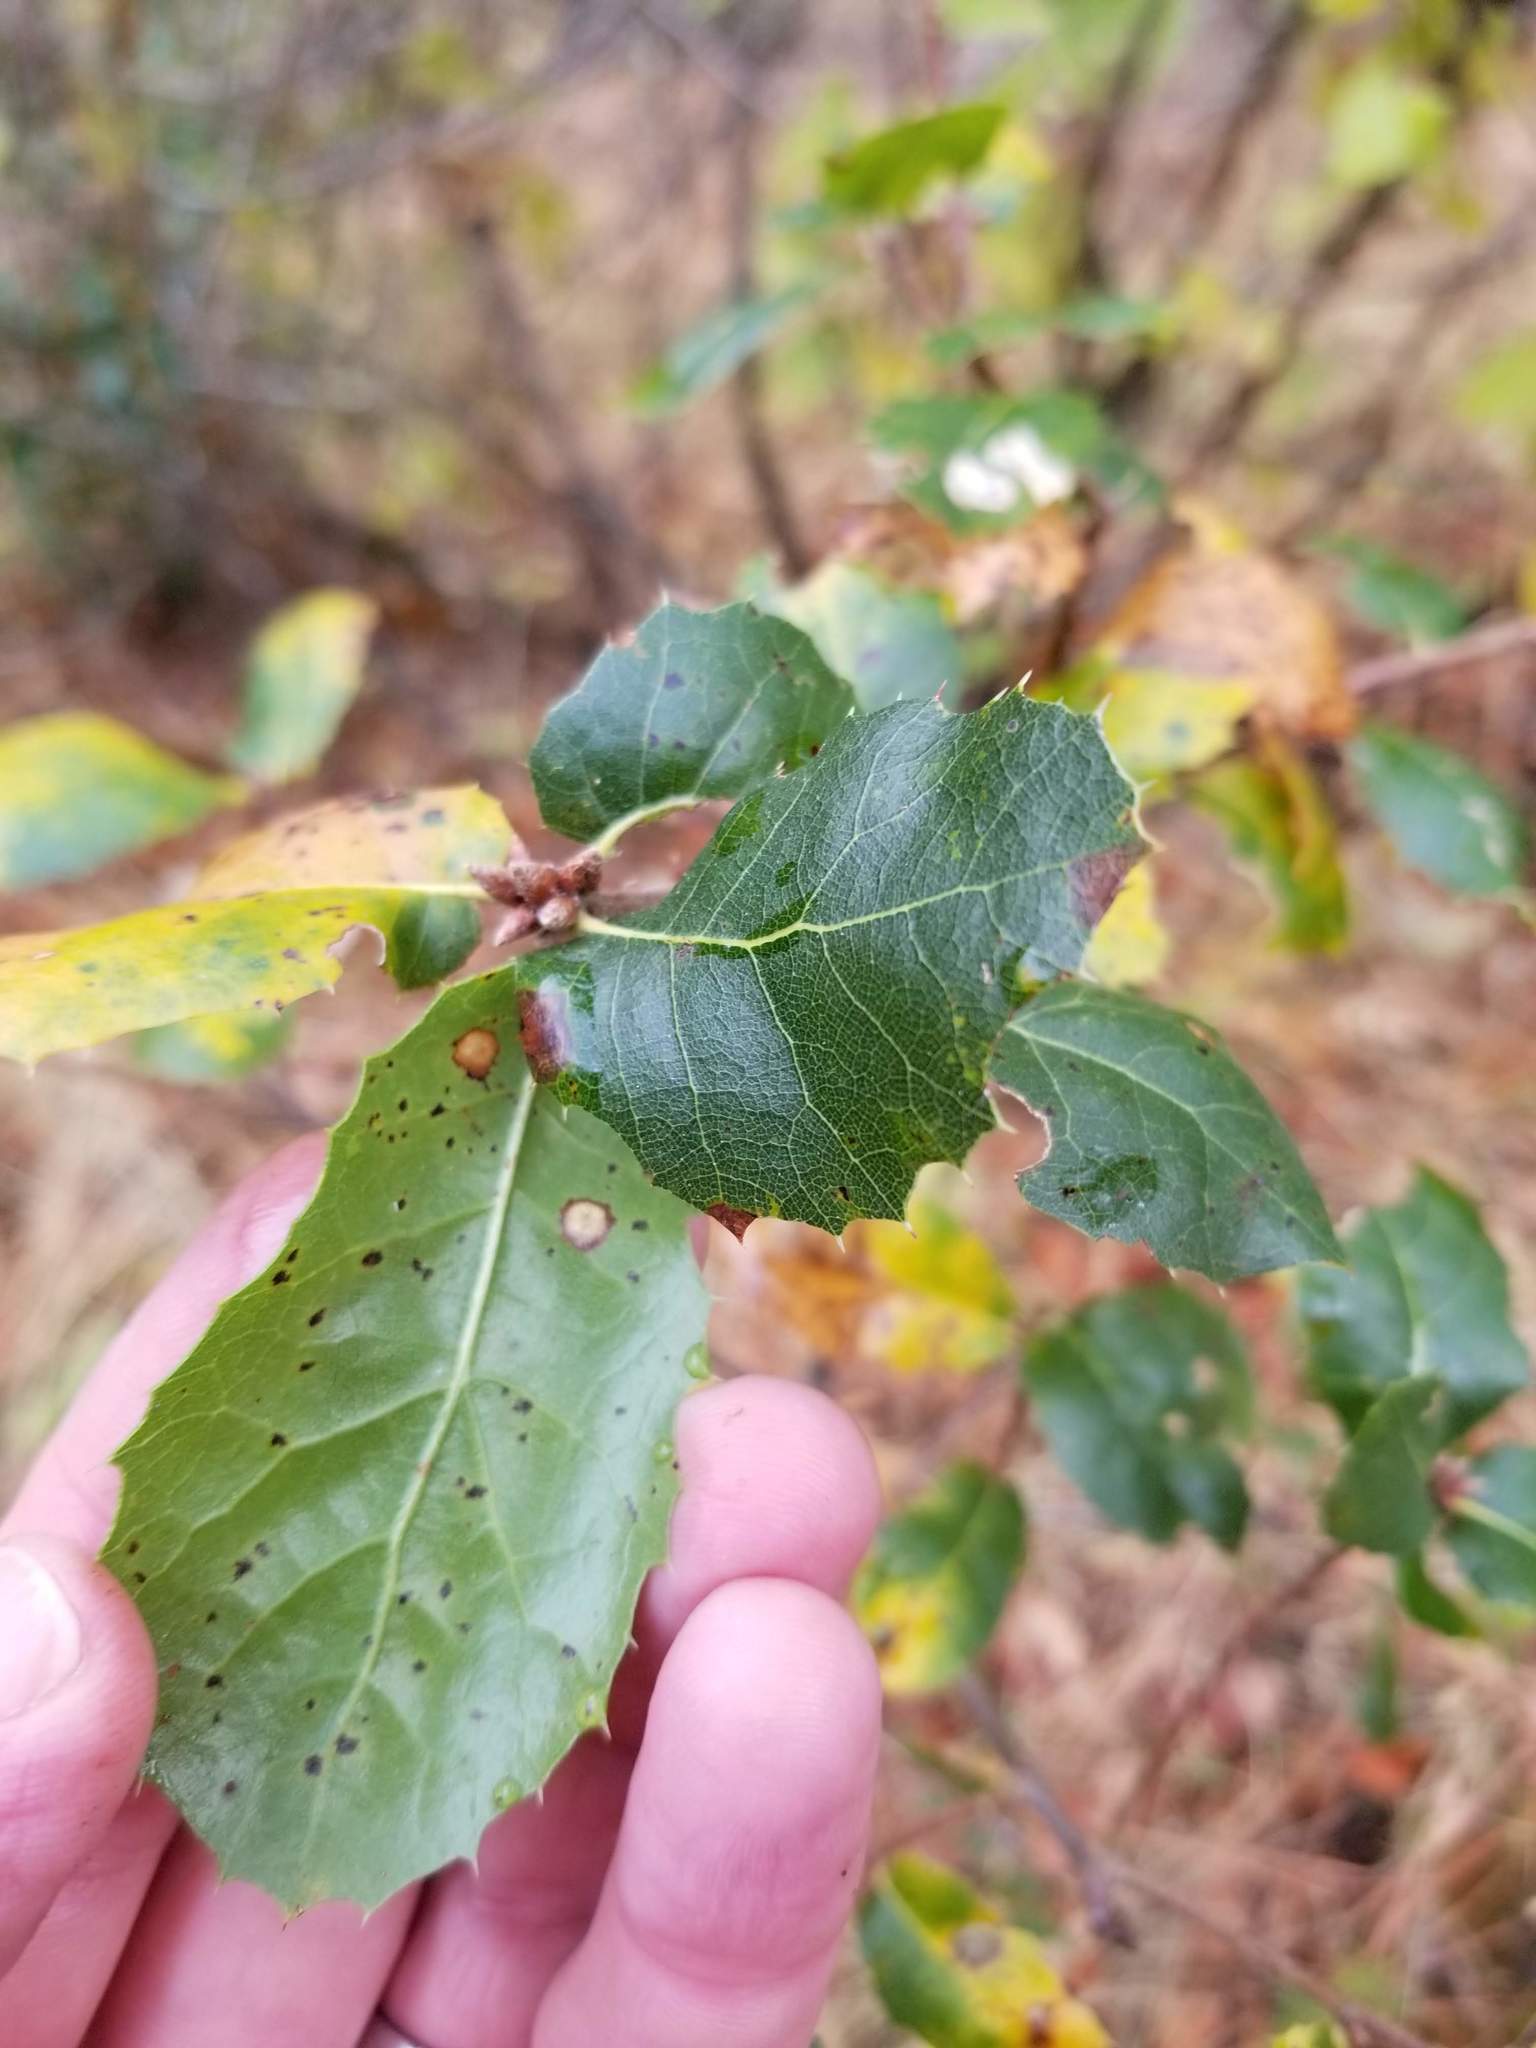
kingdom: Plantae
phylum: Tracheophyta
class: Magnoliopsida
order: Fagales
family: Fagaceae
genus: Quercus
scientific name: Quercus wislizeni
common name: Interior live oak
